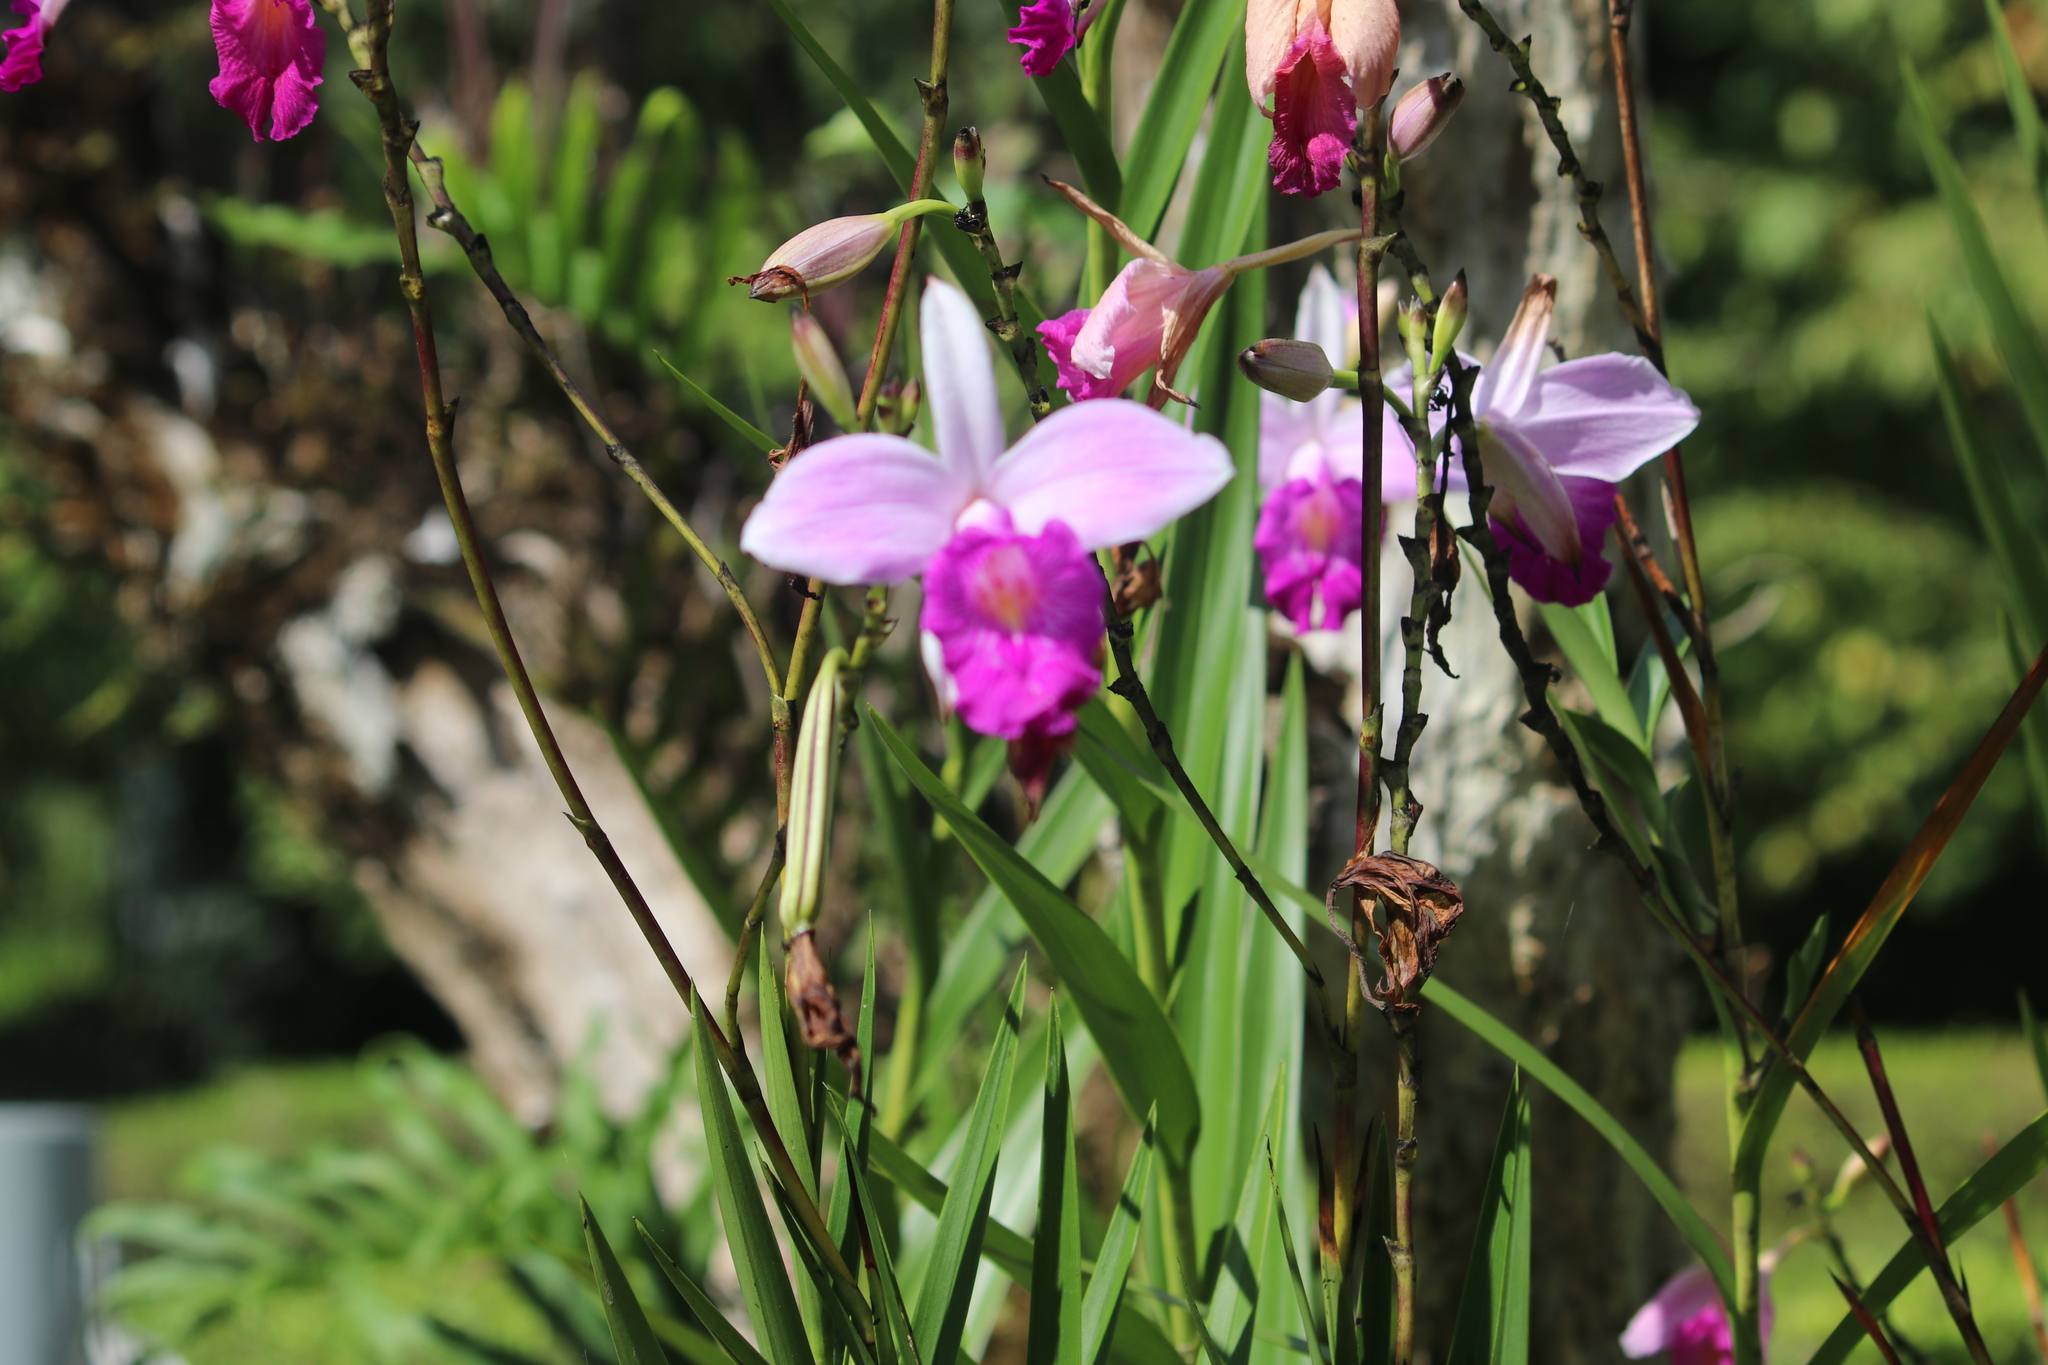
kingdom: Plantae
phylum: Tracheophyta
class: Liliopsida
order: Asparagales
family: Orchidaceae
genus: Arundina
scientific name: Arundina graminifolia
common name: Bamboo orchid
